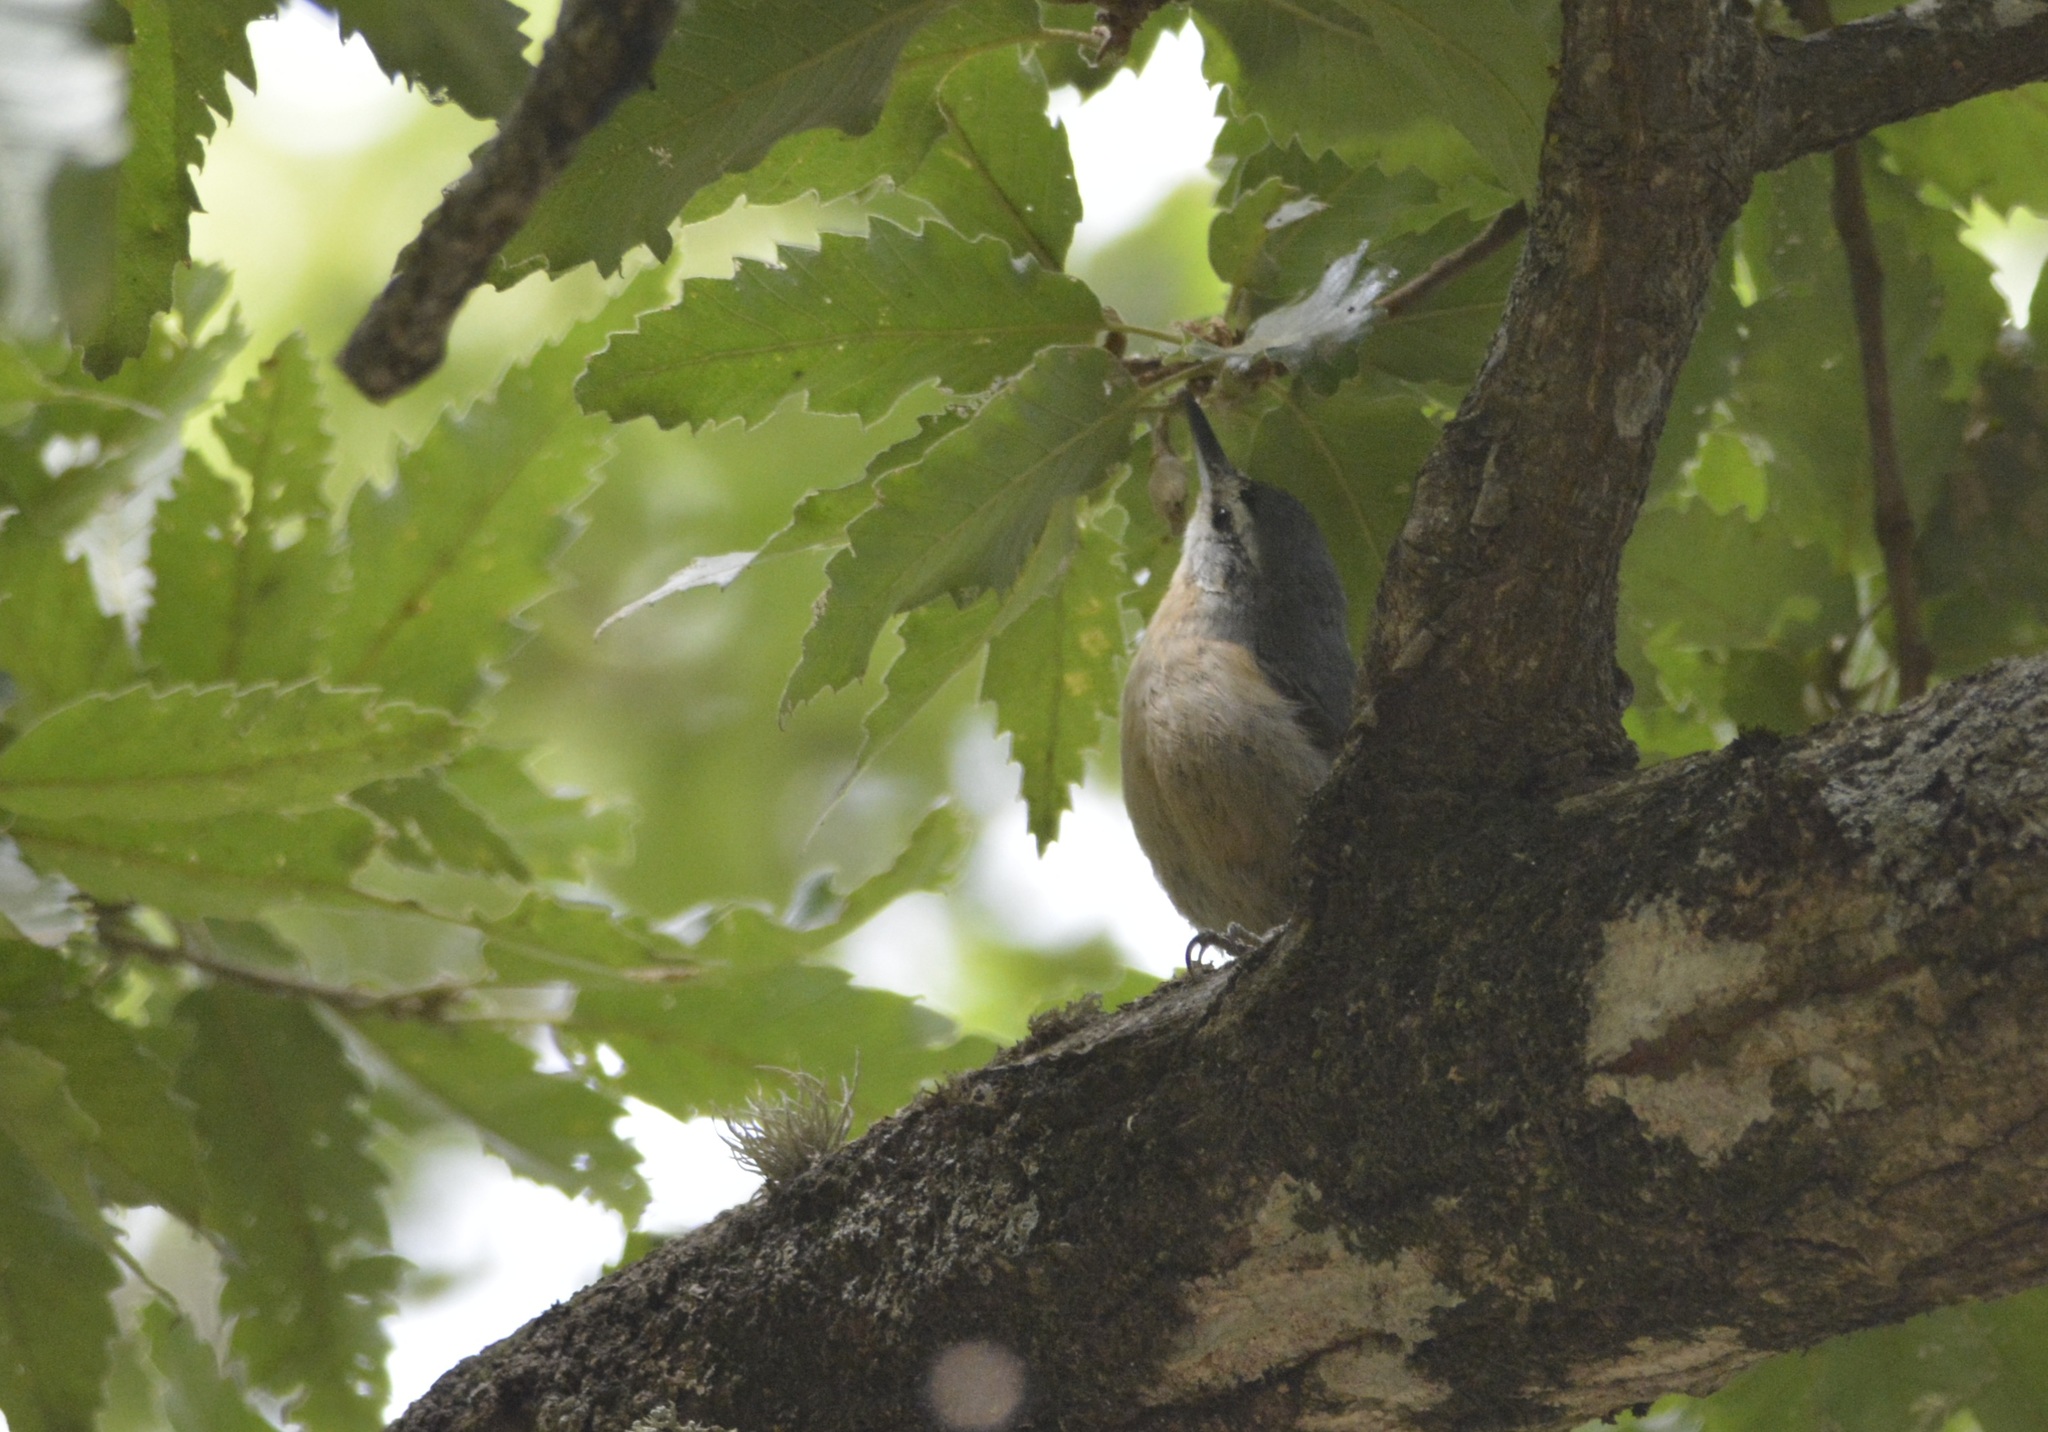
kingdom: Animalia
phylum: Chordata
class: Aves
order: Passeriformes
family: Sittidae
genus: Sitta
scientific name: Sitta ledanti
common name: Algerian nuthatch
